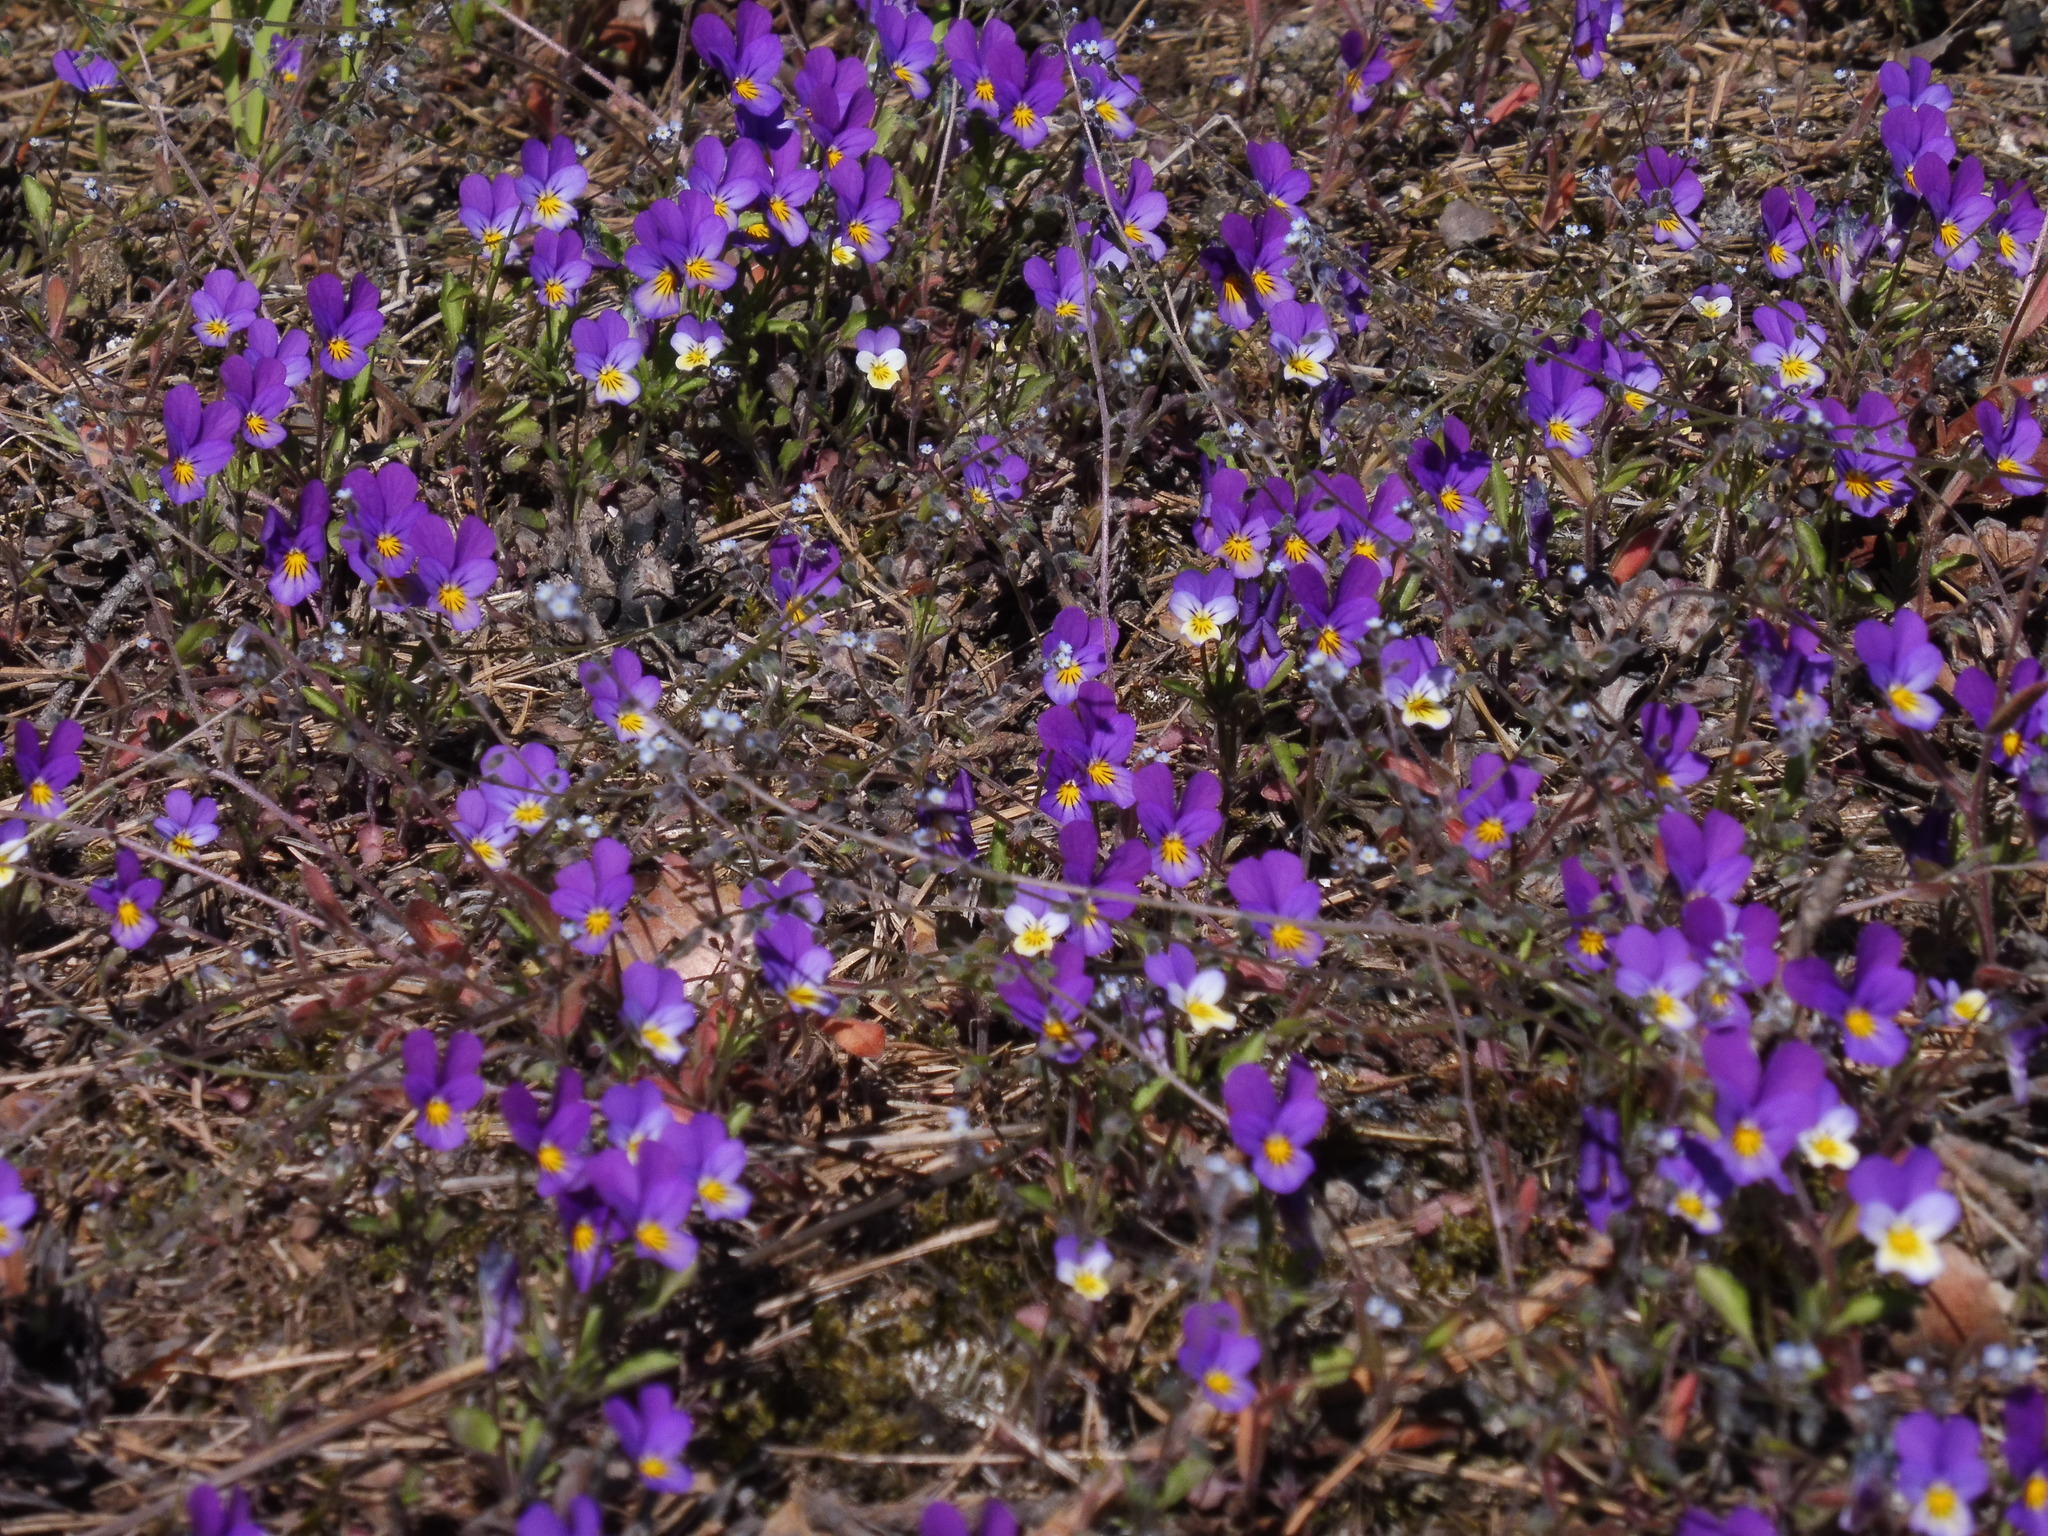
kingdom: Plantae
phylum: Tracheophyta
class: Magnoliopsida
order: Malpighiales
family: Violaceae
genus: Viola
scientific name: Viola tricolor
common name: Pansy
